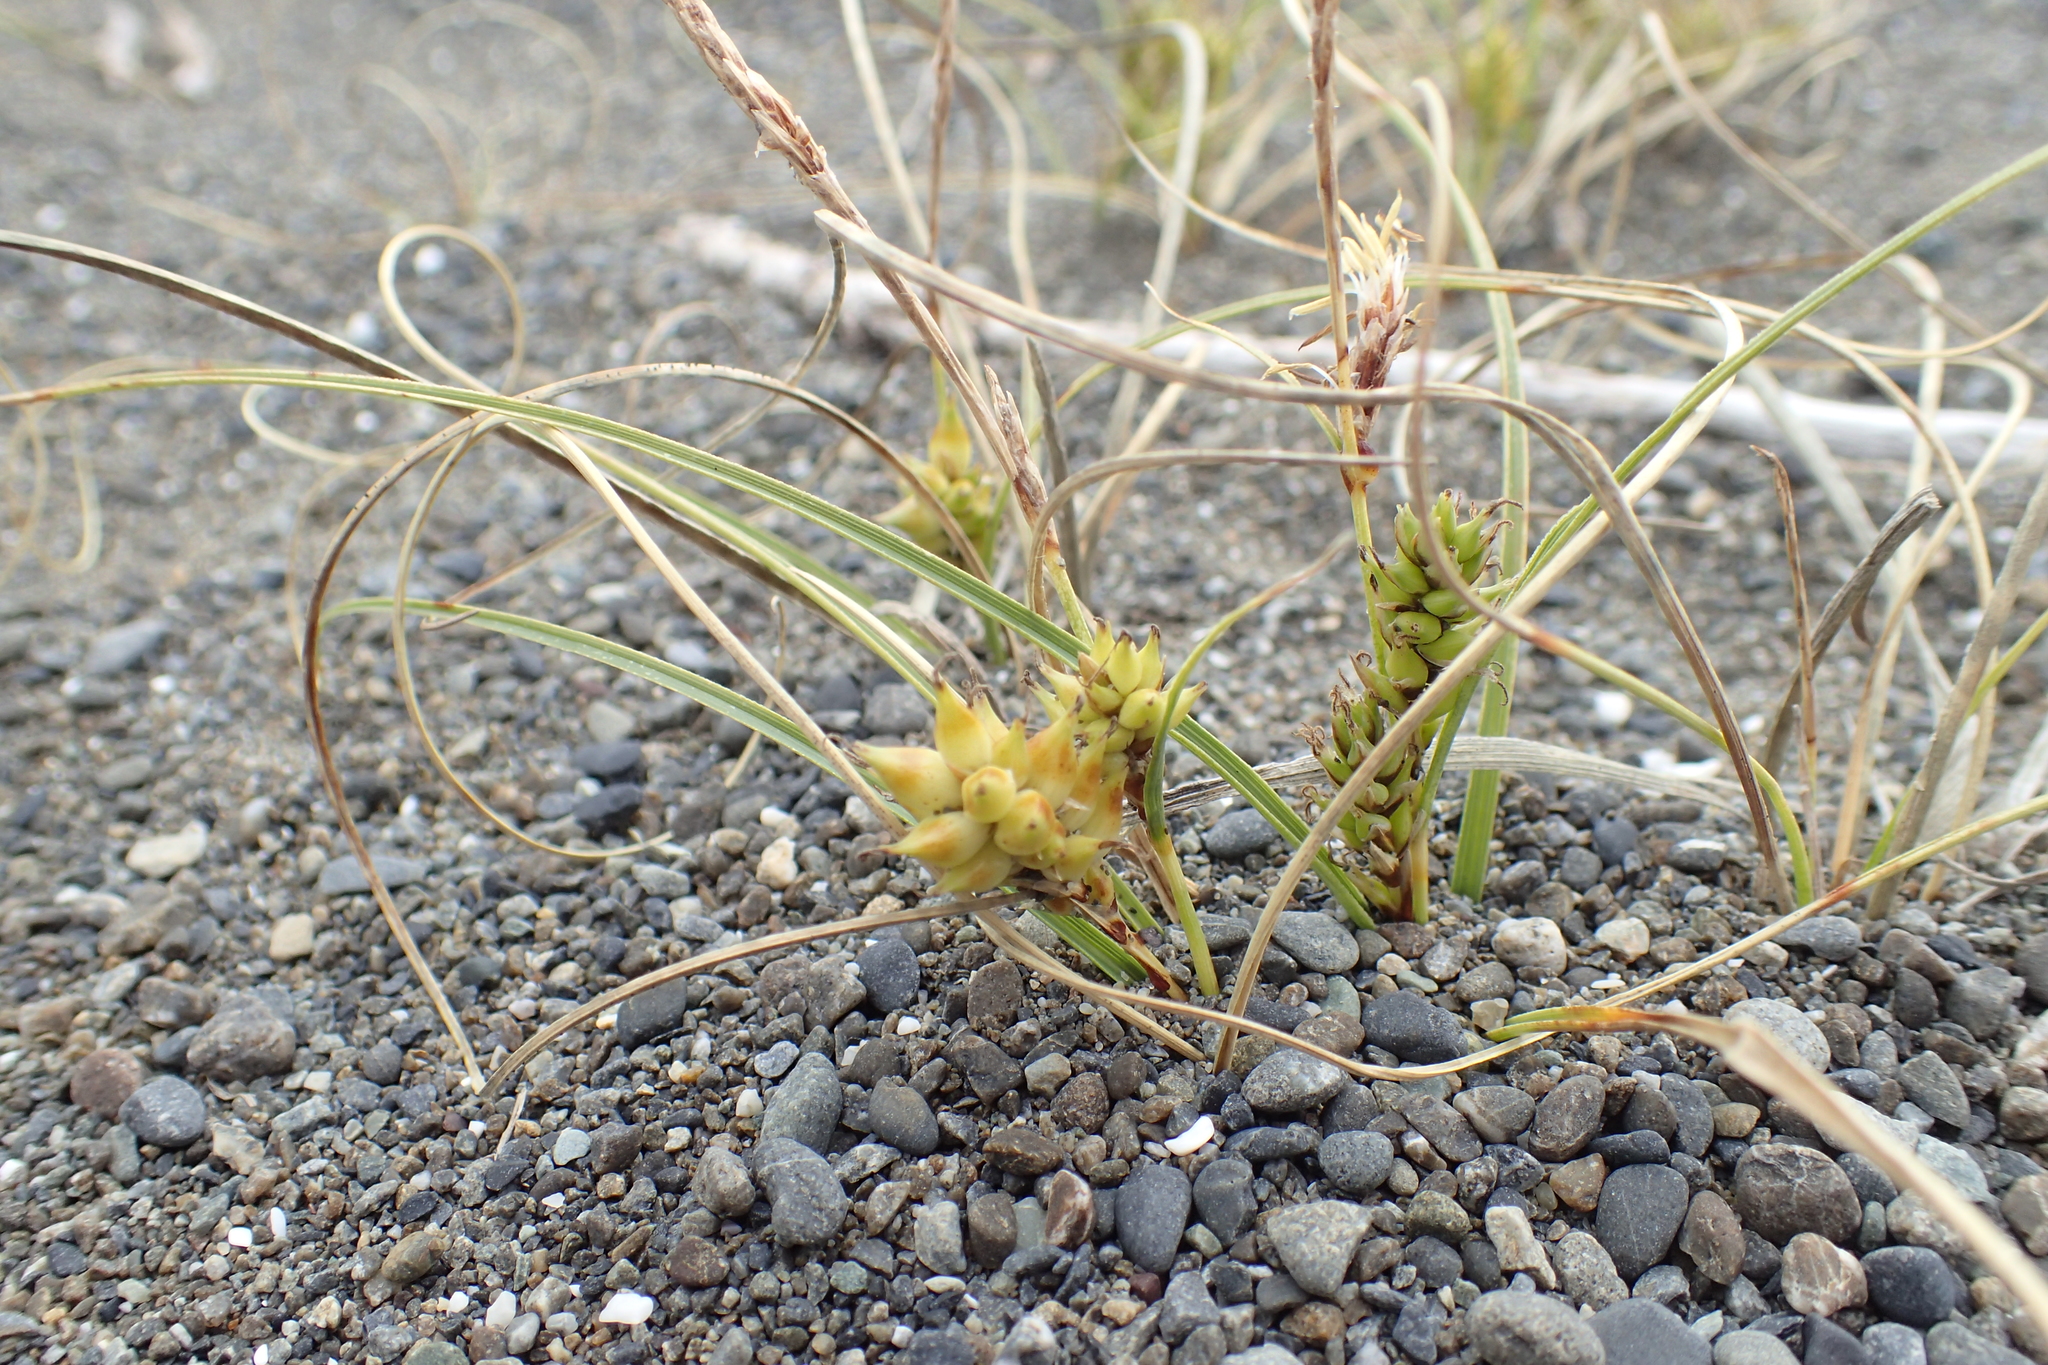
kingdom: Plantae
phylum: Tracheophyta
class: Liliopsida
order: Poales
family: Cyperaceae
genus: Carex
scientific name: Carex pumila
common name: Dwarf sedge
